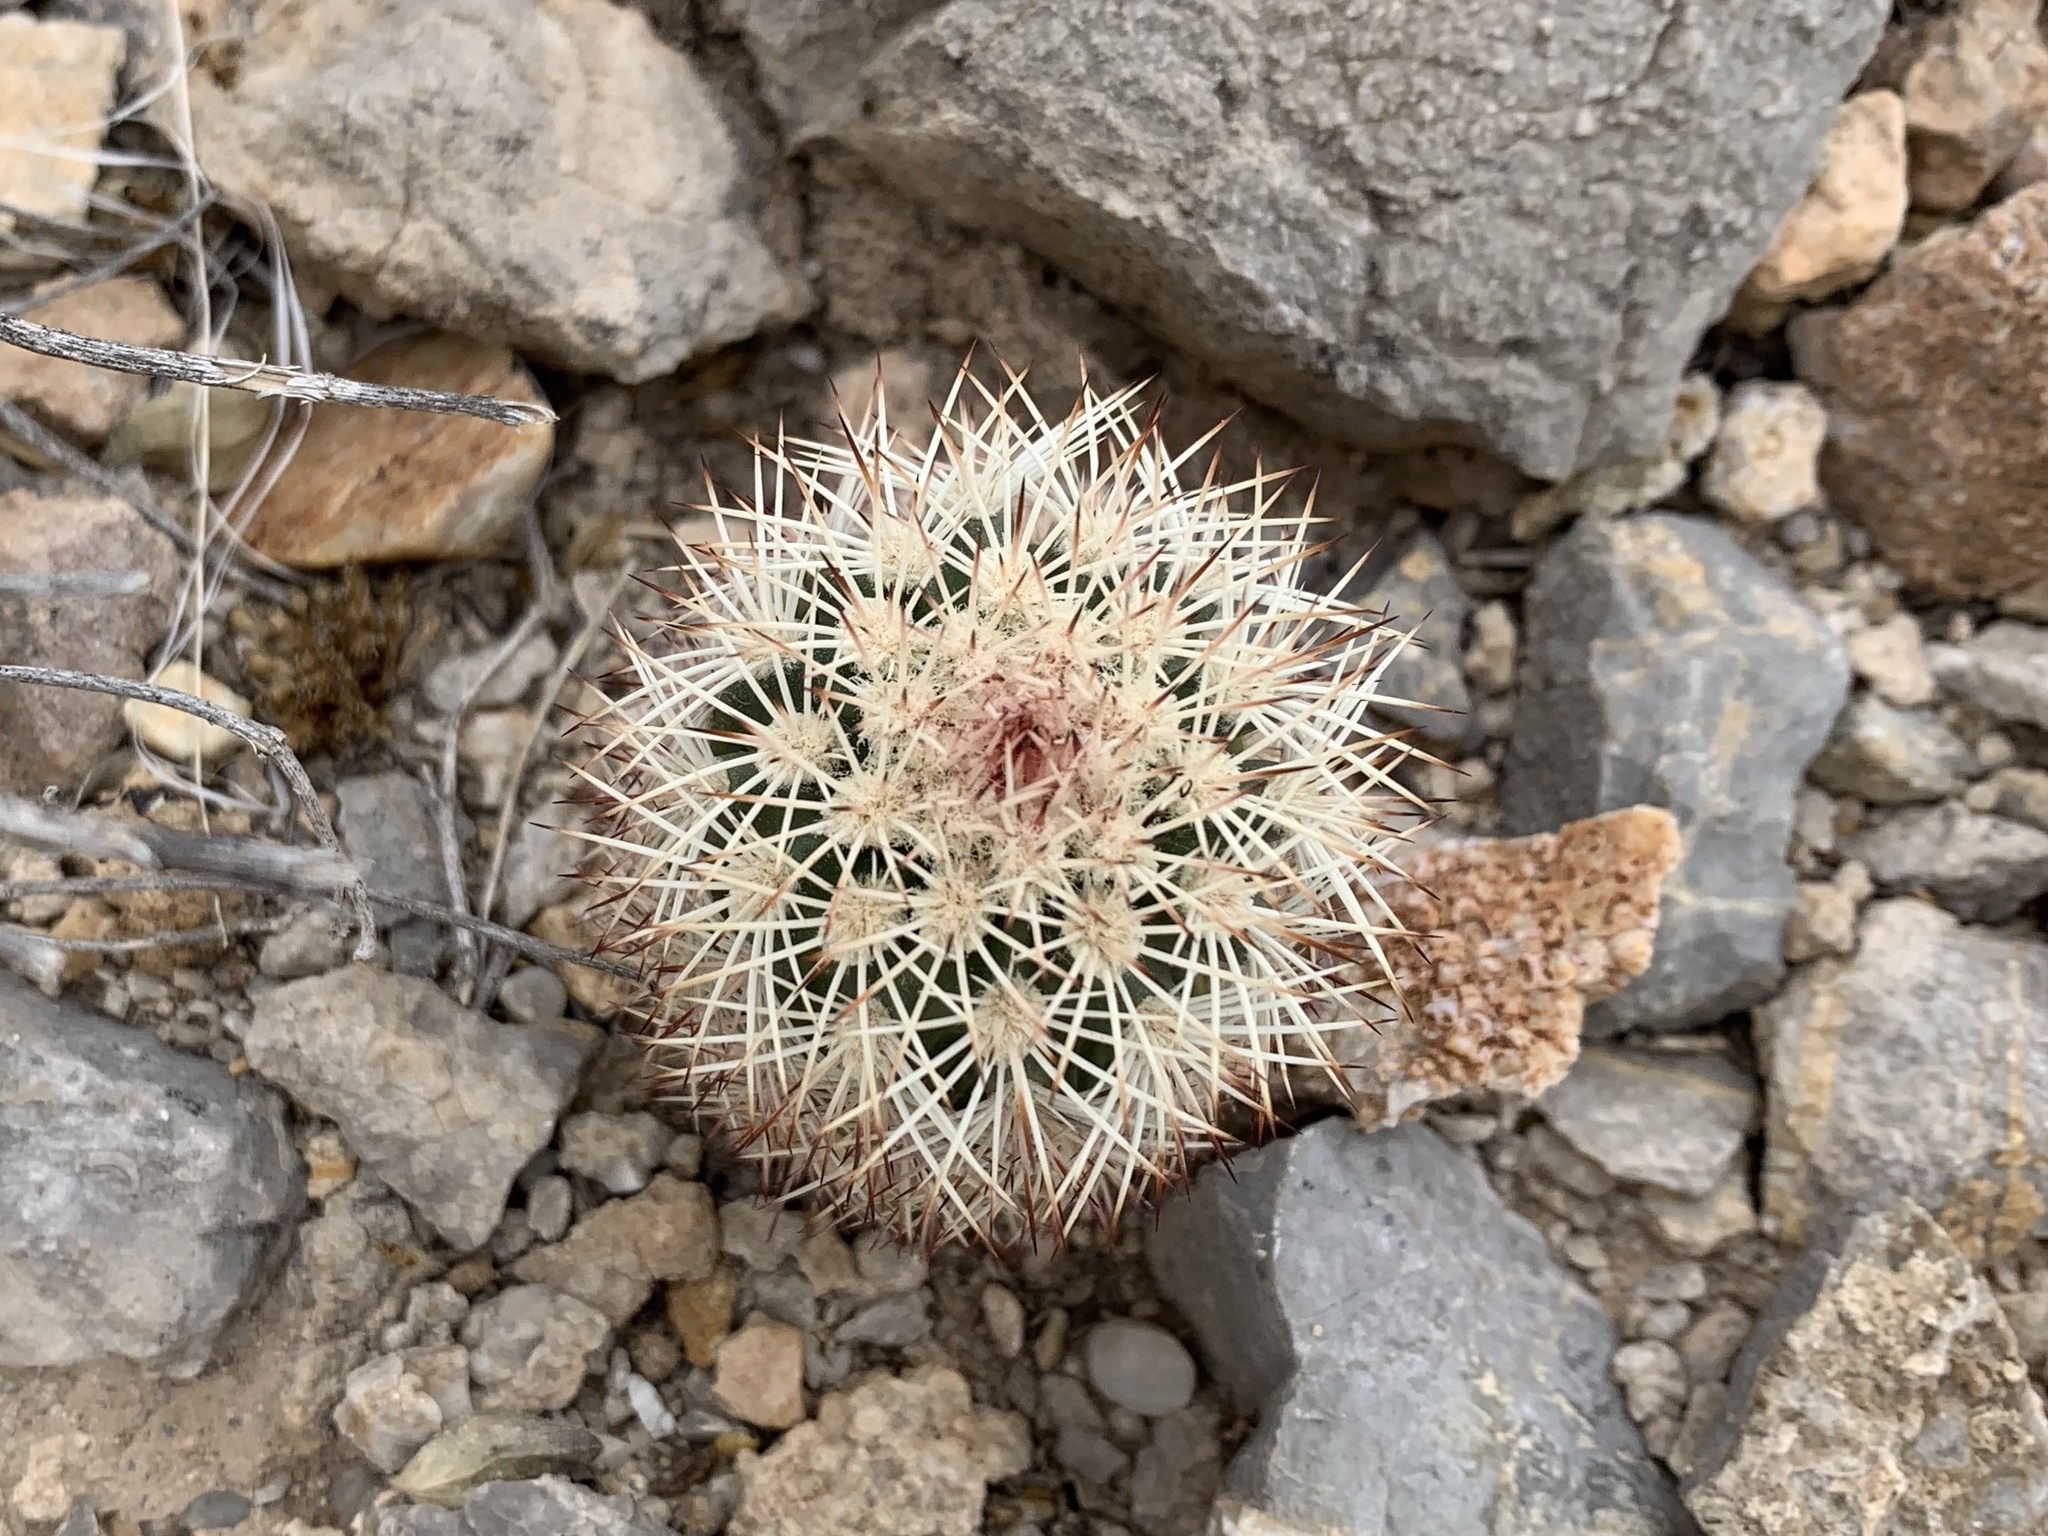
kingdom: Plantae
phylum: Tracheophyta
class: Magnoliopsida
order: Caryophyllales
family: Cactaceae
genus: Echinocereus
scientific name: Echinocereus dasyacanthus
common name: Spiny hedgehog cactus
